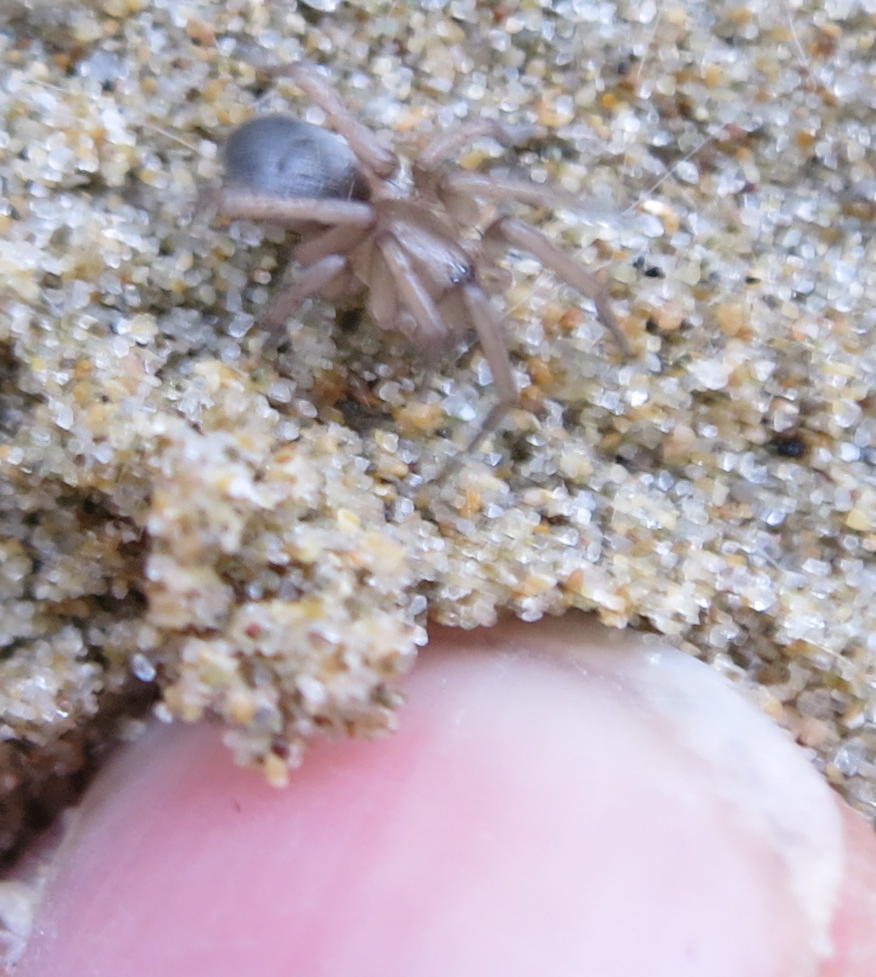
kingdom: Animalia
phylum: Arthropoda
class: Arachnida
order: Araneae
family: Gnaphosidae
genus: Anzacia
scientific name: Anzacia gemmea
